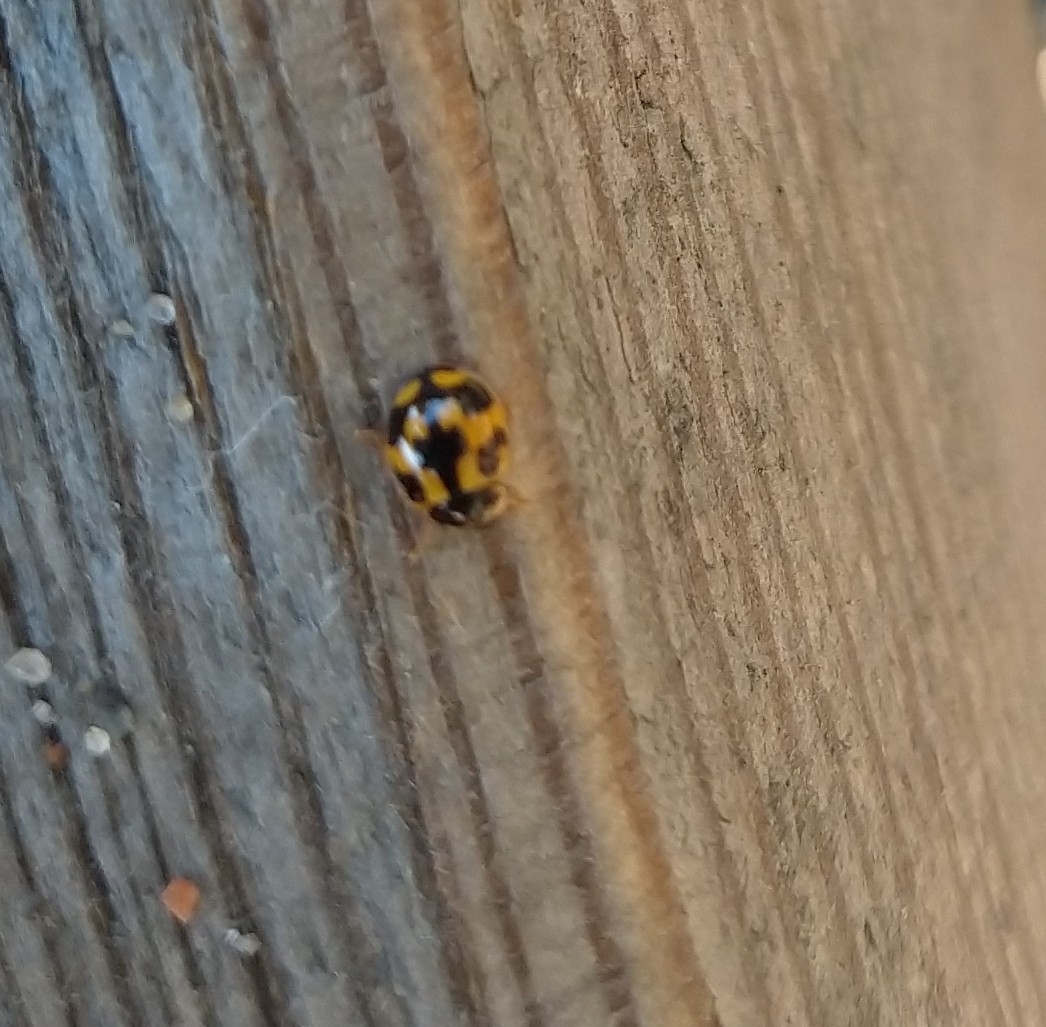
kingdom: Animalia
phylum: Arthropoda
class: Insecta
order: Coleoptera
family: Coccinellidae
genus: Propylaea
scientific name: Propylaea quatuordecimpunctata
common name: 14-spotted ladybird beetle
